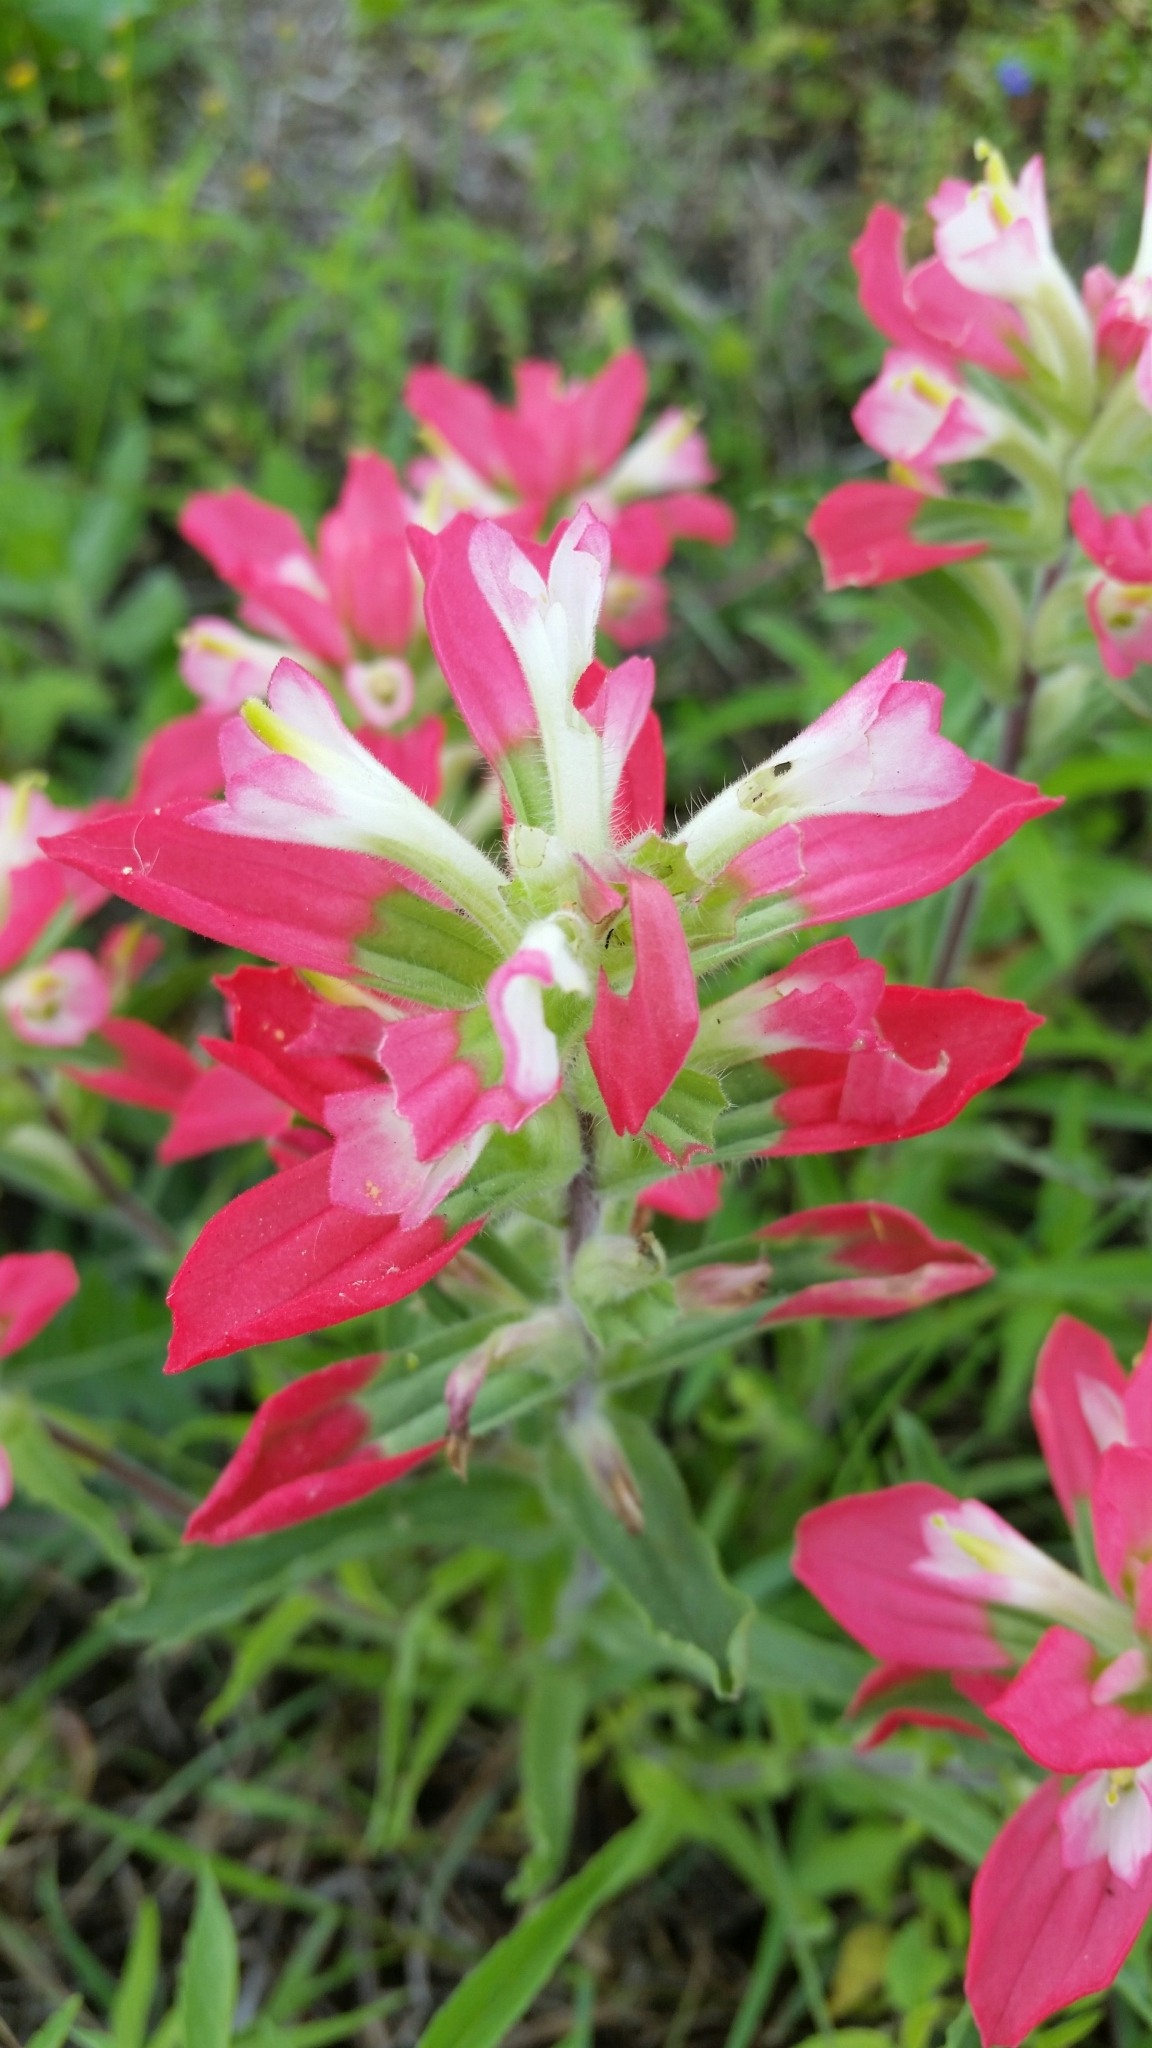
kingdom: Plantae
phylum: Tracheophyta
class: Magnoliopsida
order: Lamiales
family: Orobanchaceae
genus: Castilleja
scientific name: Castilleja indivisa
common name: Texas paintbrush
